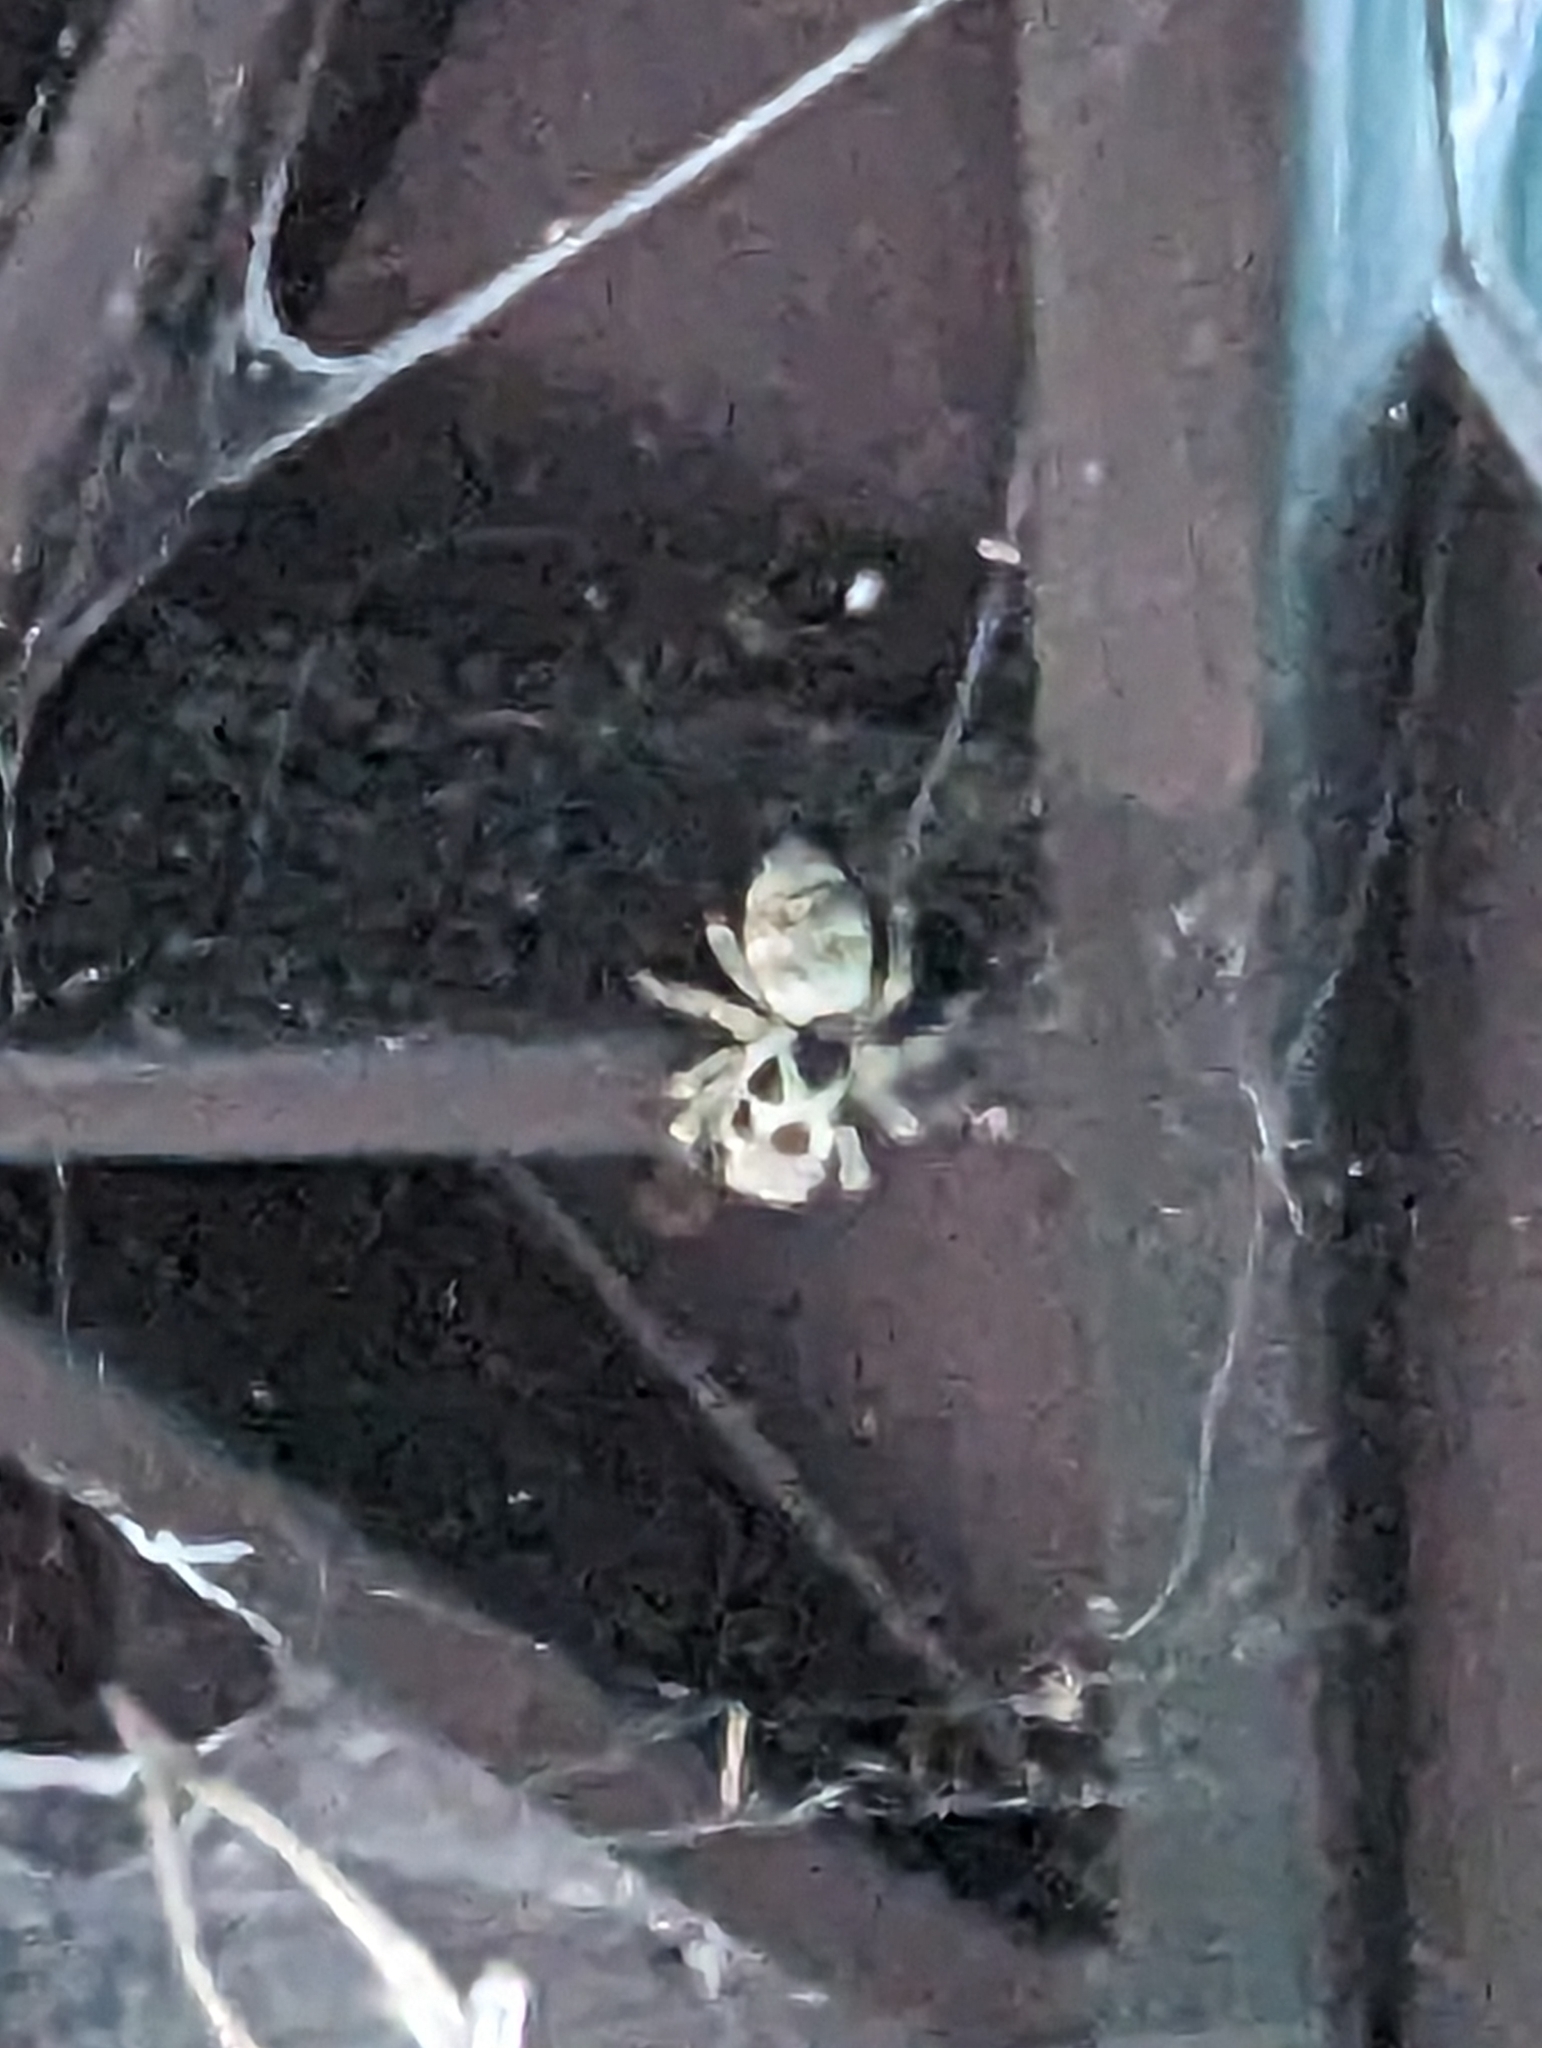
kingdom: Animalia
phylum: Arthropoda
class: Arachnida
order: Araneae
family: Salticidae
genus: Salticus
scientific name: Salticus scenicus
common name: Zebra jumper
